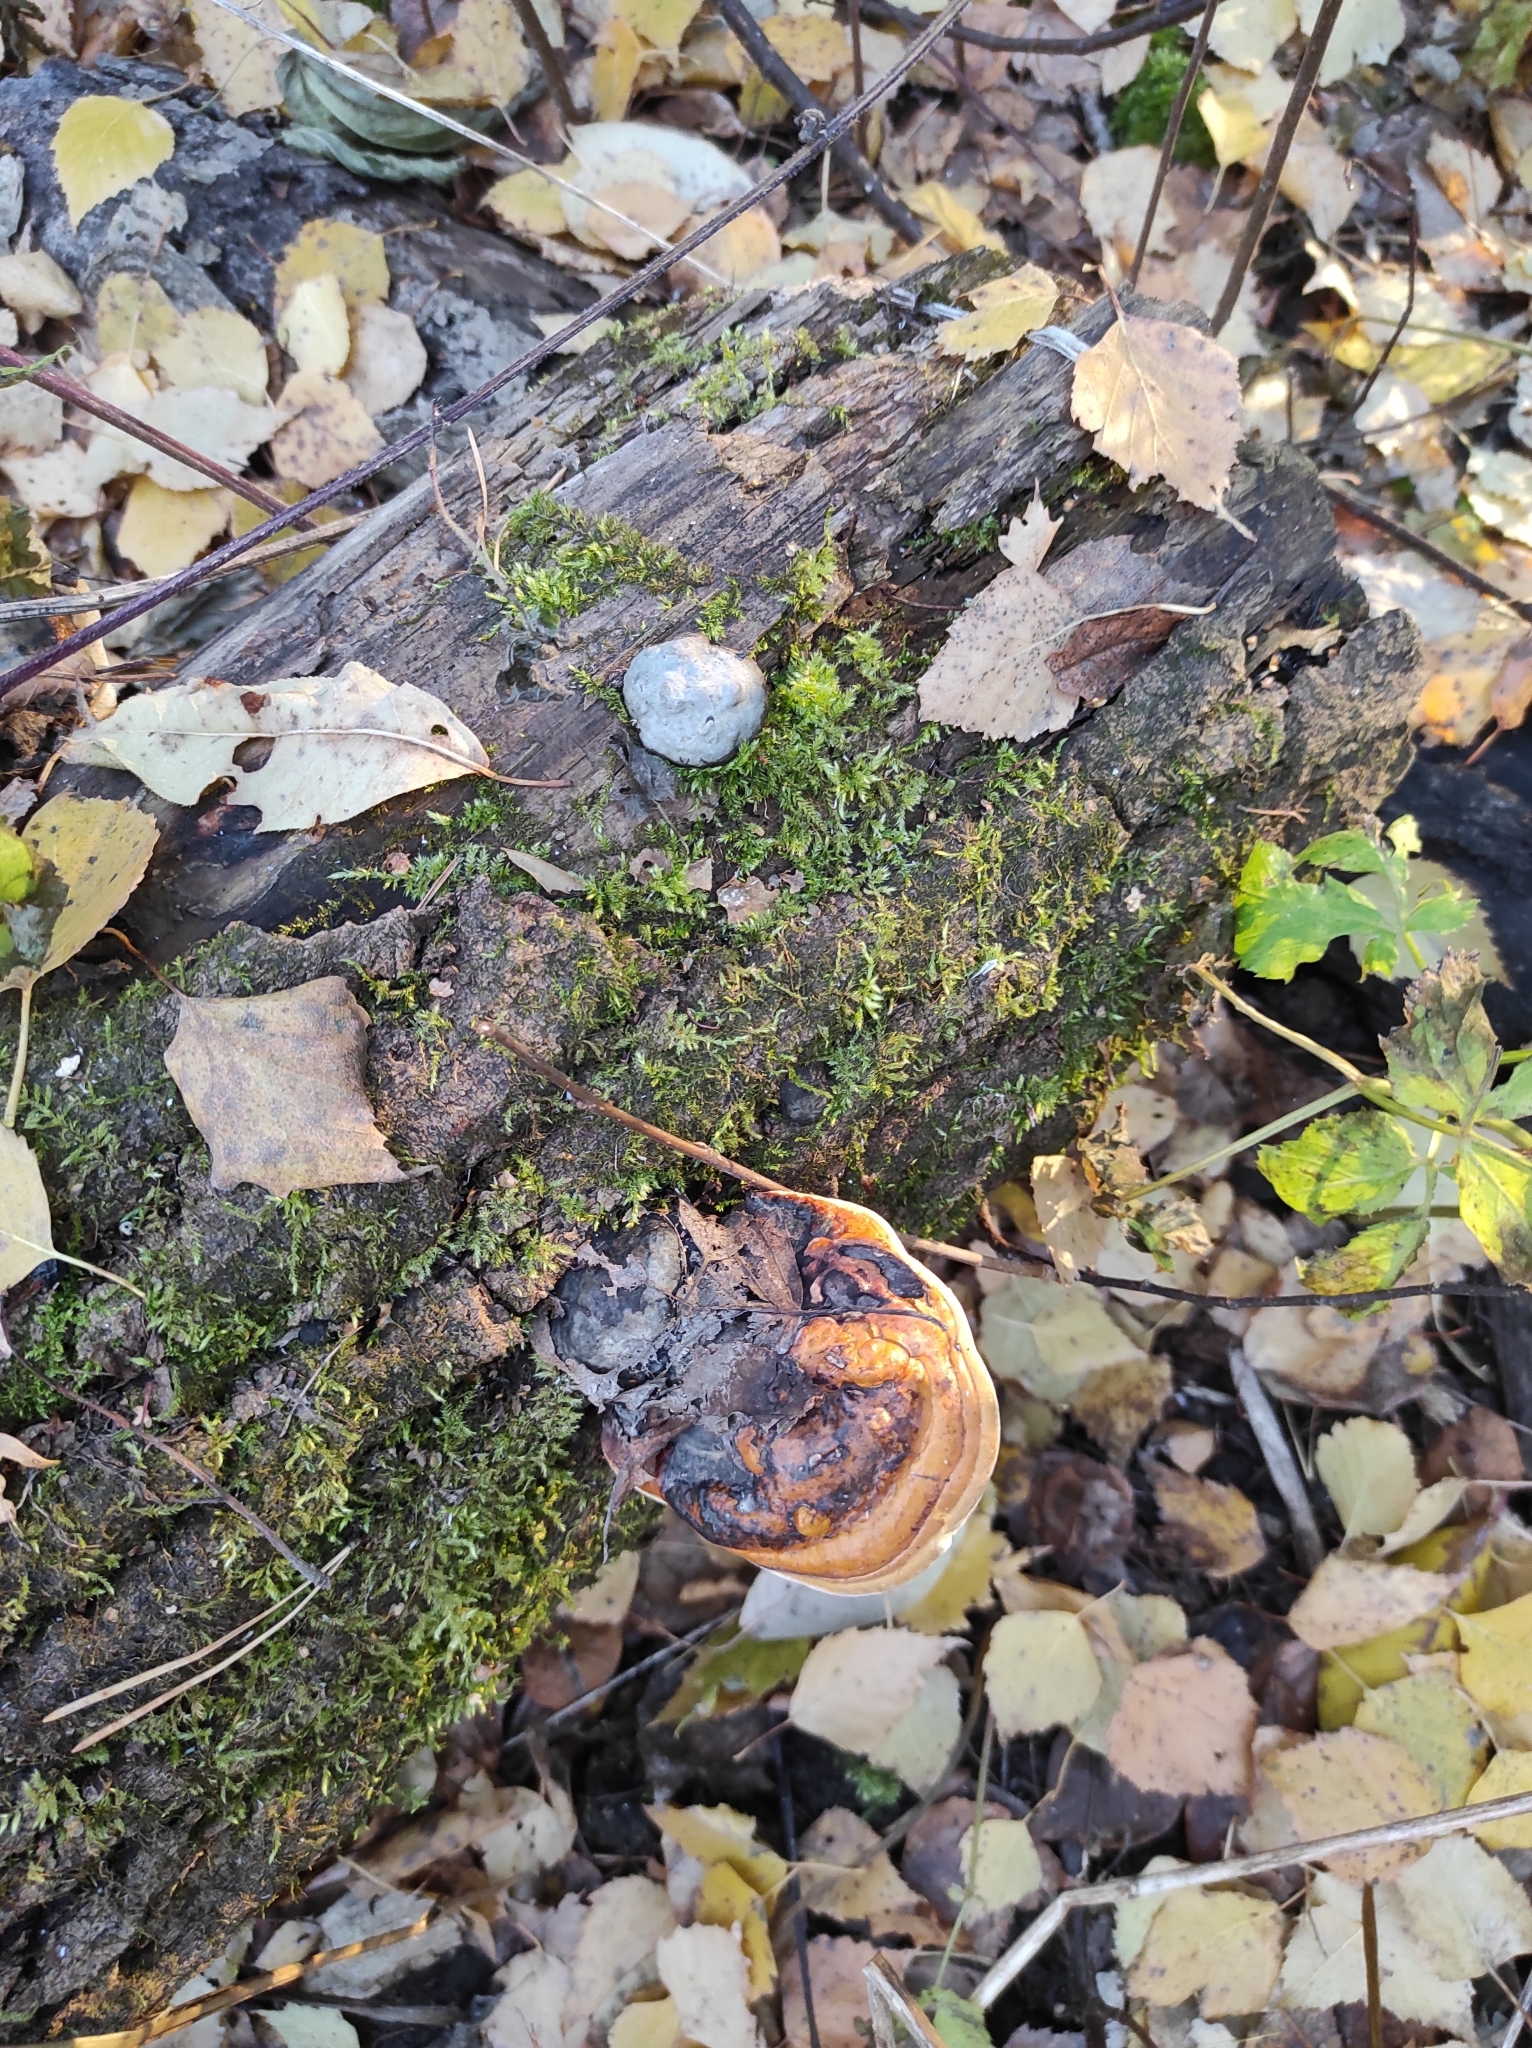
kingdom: Fungi
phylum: Basidiomycota
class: Agaricomycetes
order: Polyporales
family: Fomitopsidaceae
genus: Fomitopsis
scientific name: Fomitopsis pinicola
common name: Red-belted bracket
